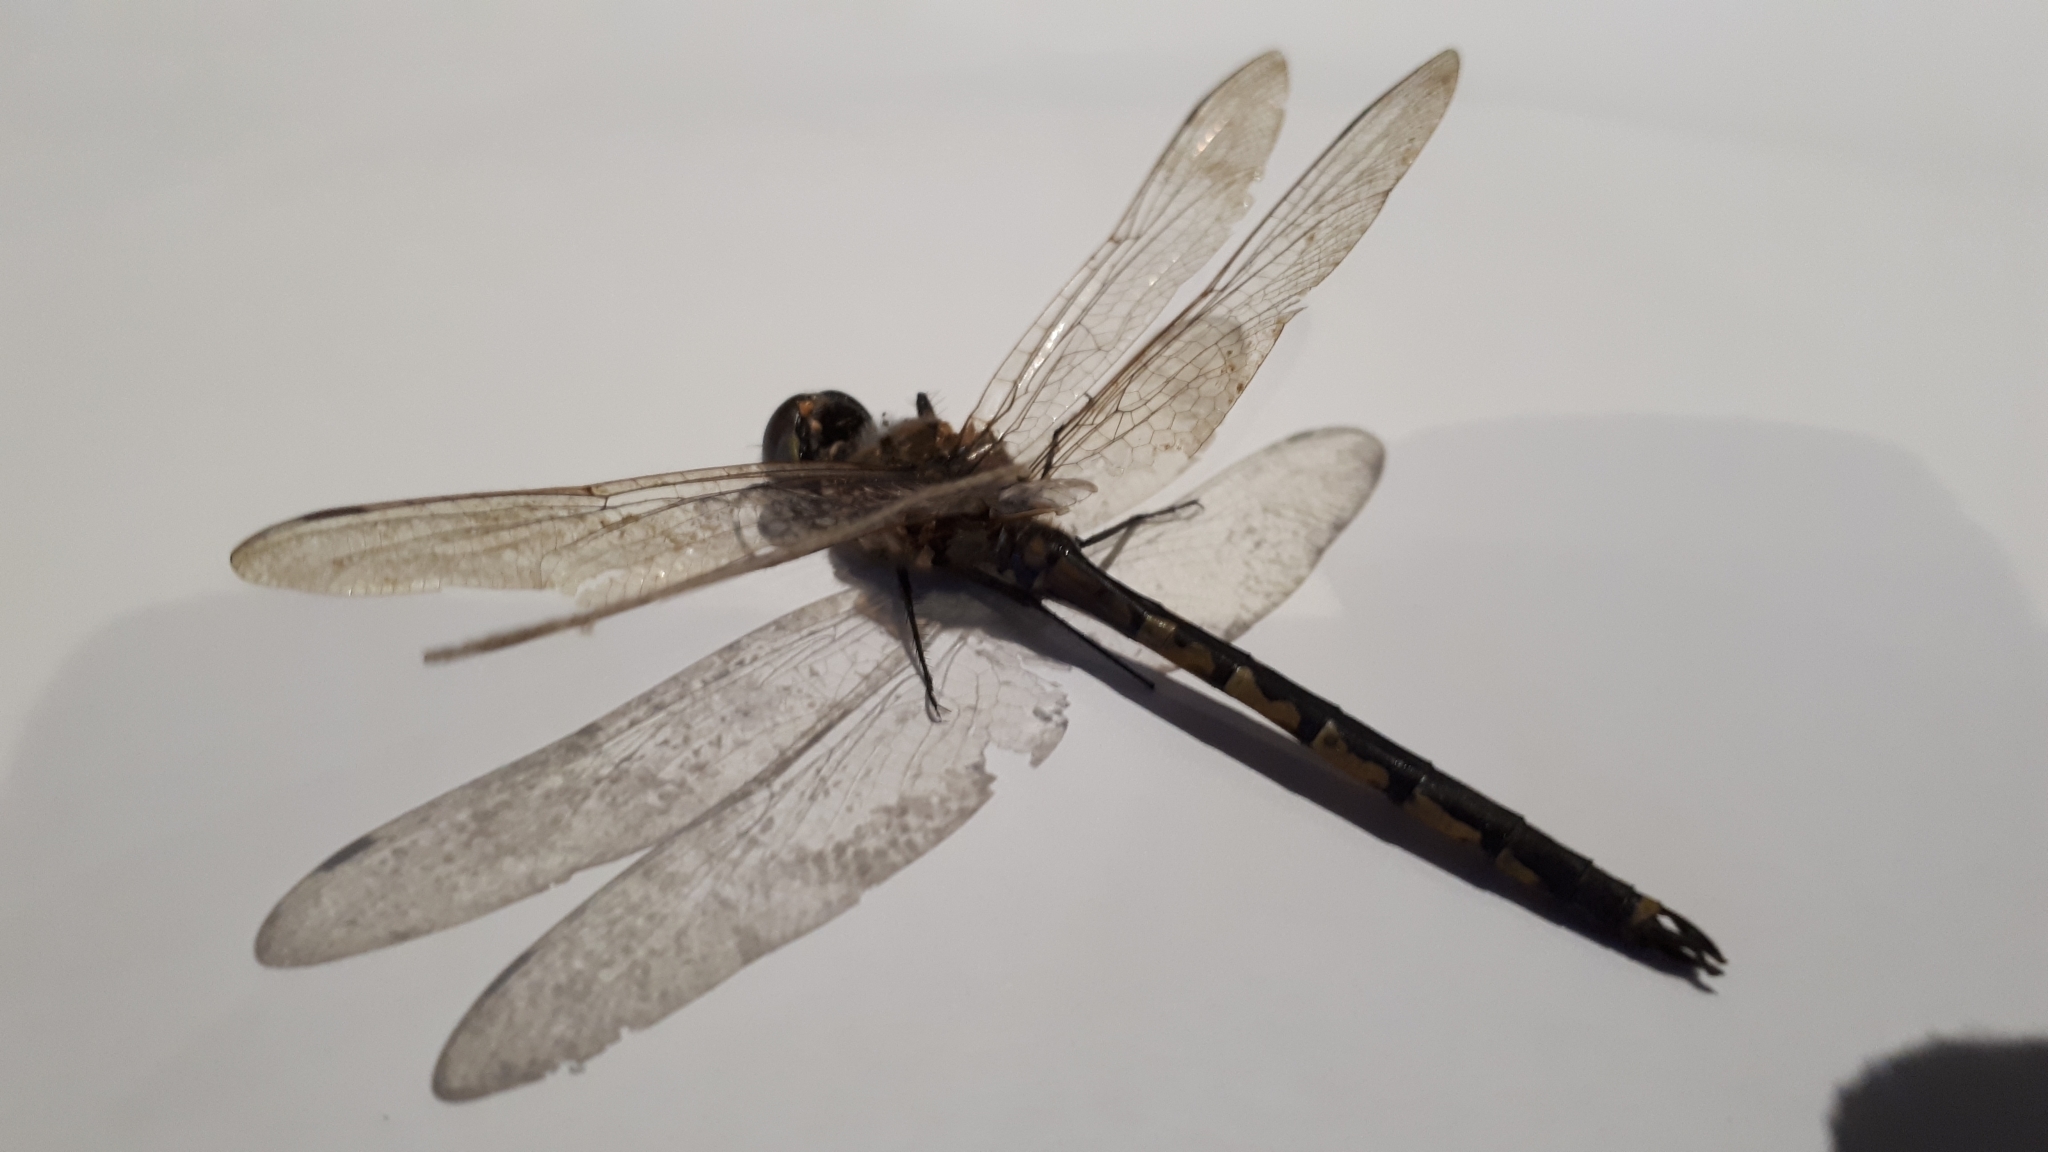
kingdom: Animalia
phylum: Arthropoda
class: Insecta
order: Odonata
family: Corduliidae
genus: Hemicordulia
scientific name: Hemicordulia tau
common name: Tau emerald
